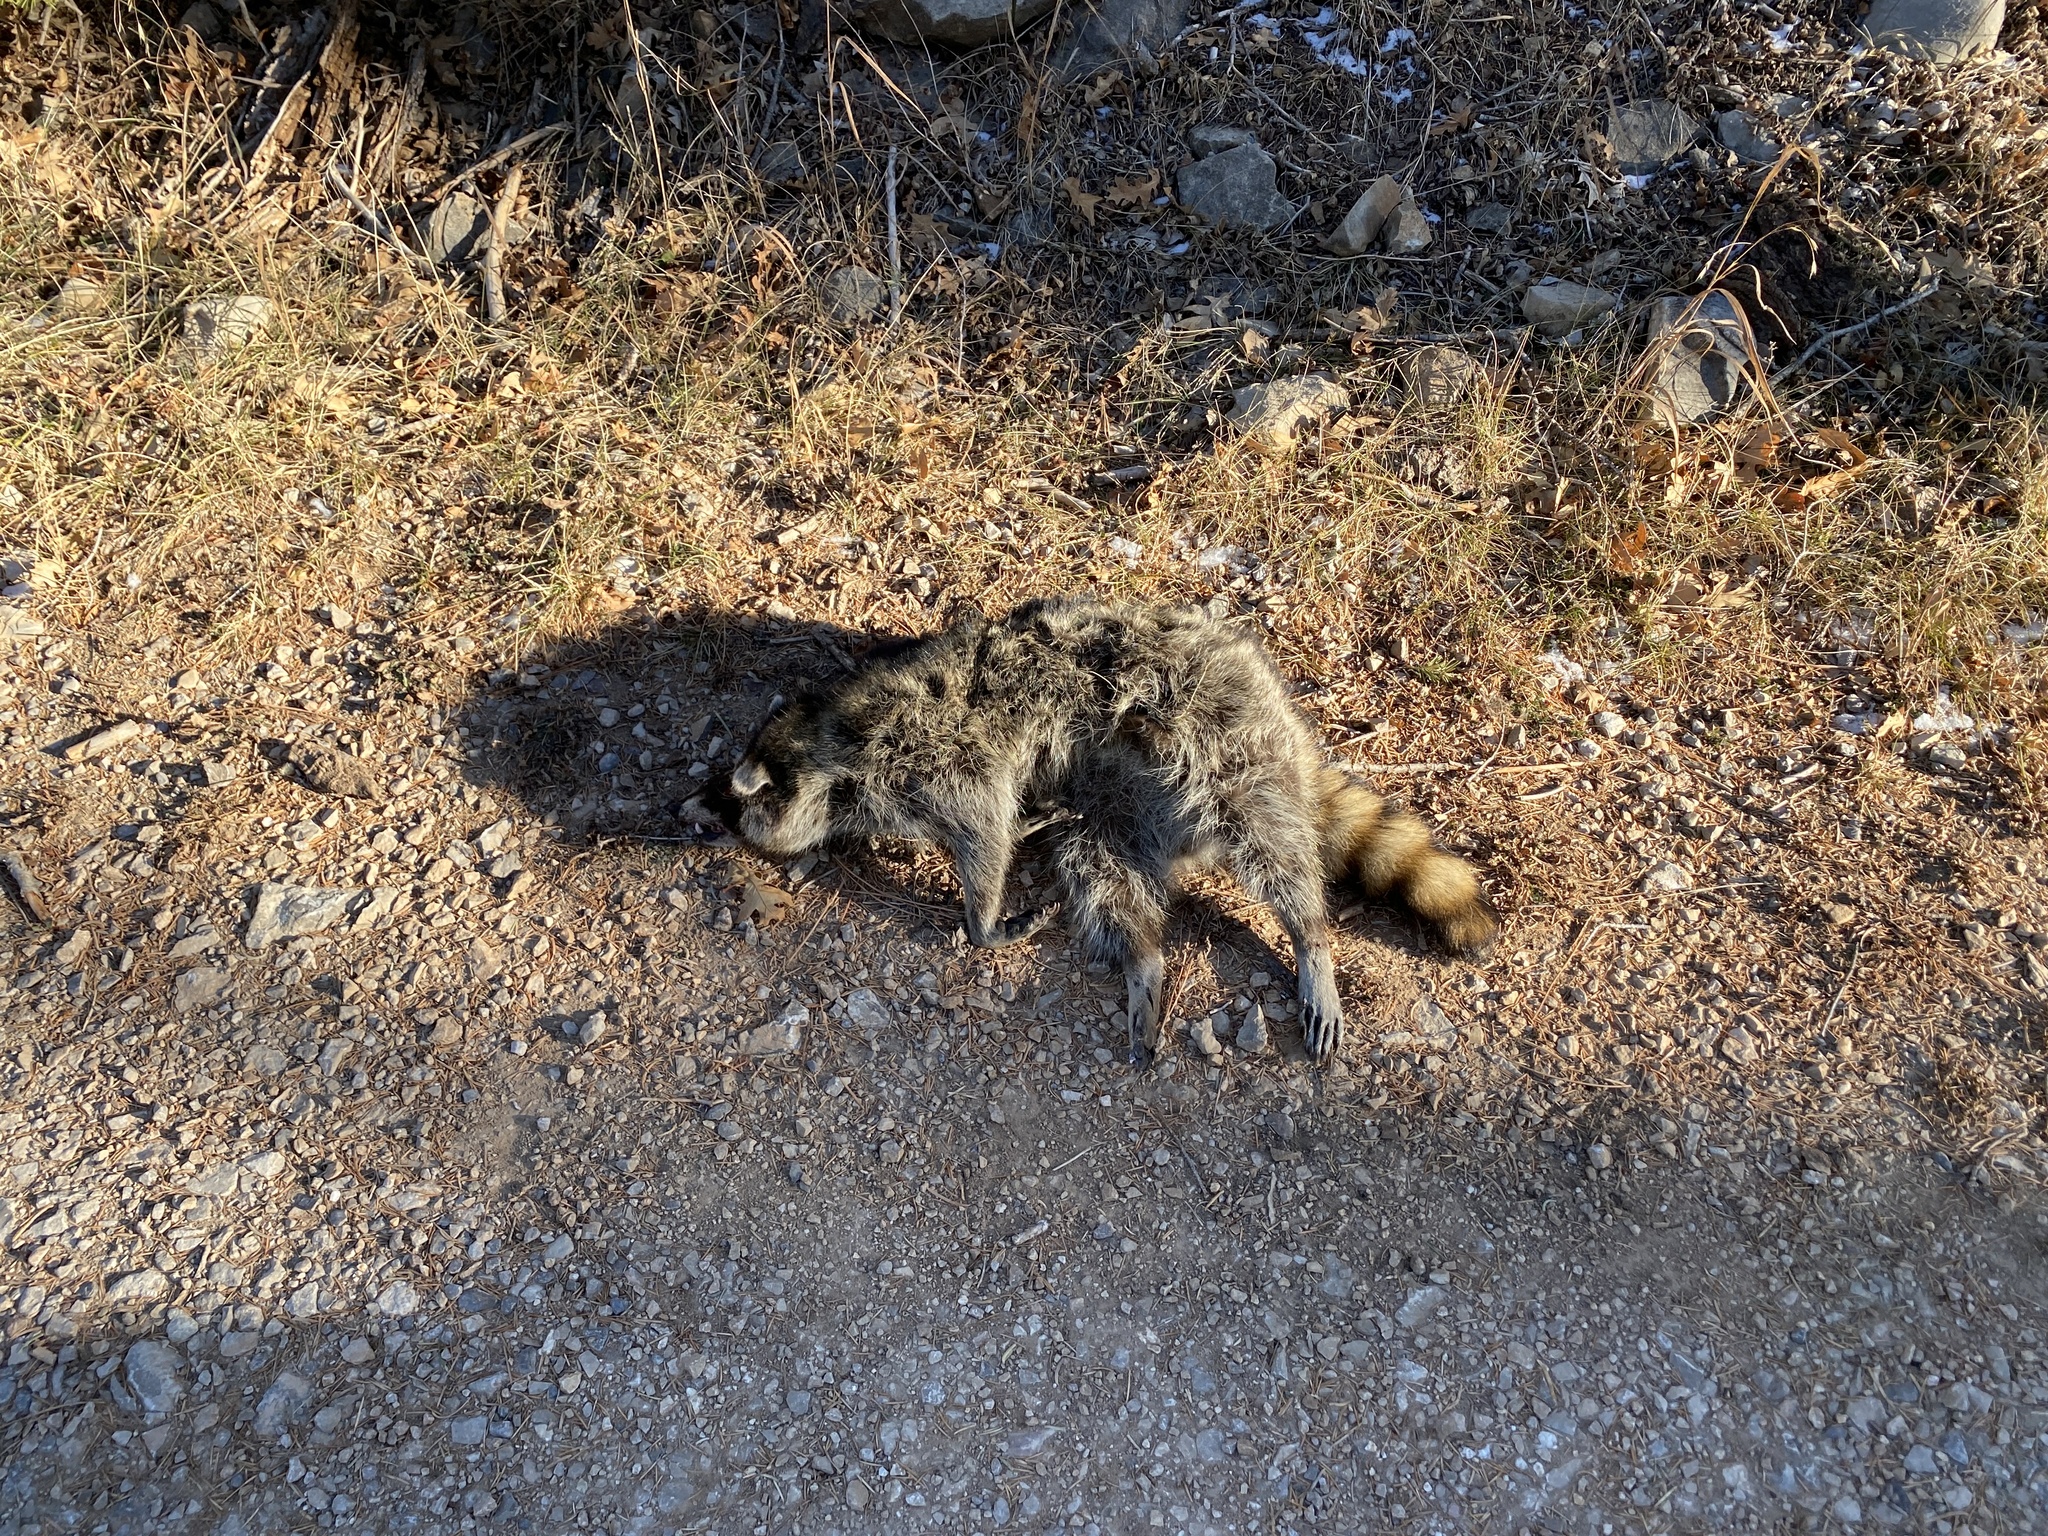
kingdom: Animalia
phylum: Chordata
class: Mammalia
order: Carnivora
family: Procyonidae
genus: Procyon
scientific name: Procyon lotor
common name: Raccoon
